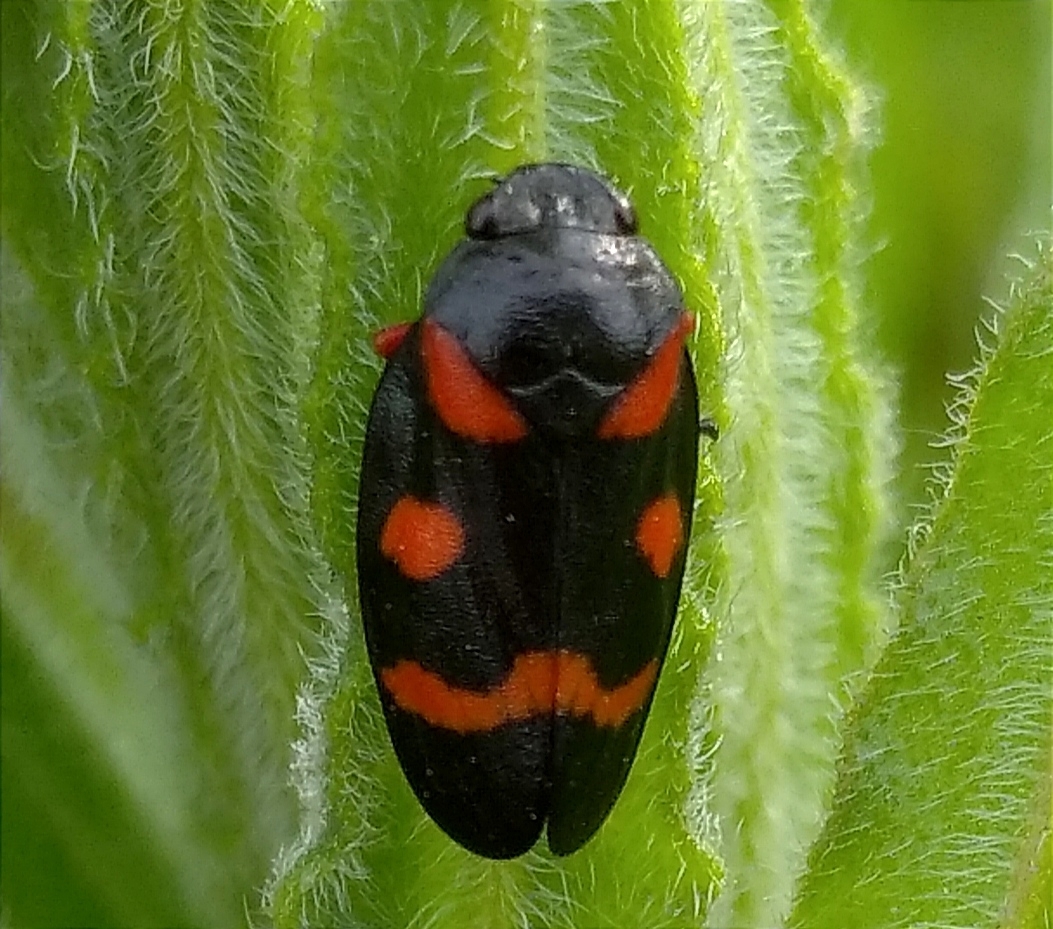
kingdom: Animalia
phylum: Arthropoda
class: Insecta
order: Hemiptera
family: Cercopidae
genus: Cercopis
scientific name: Cercopis intermedia
